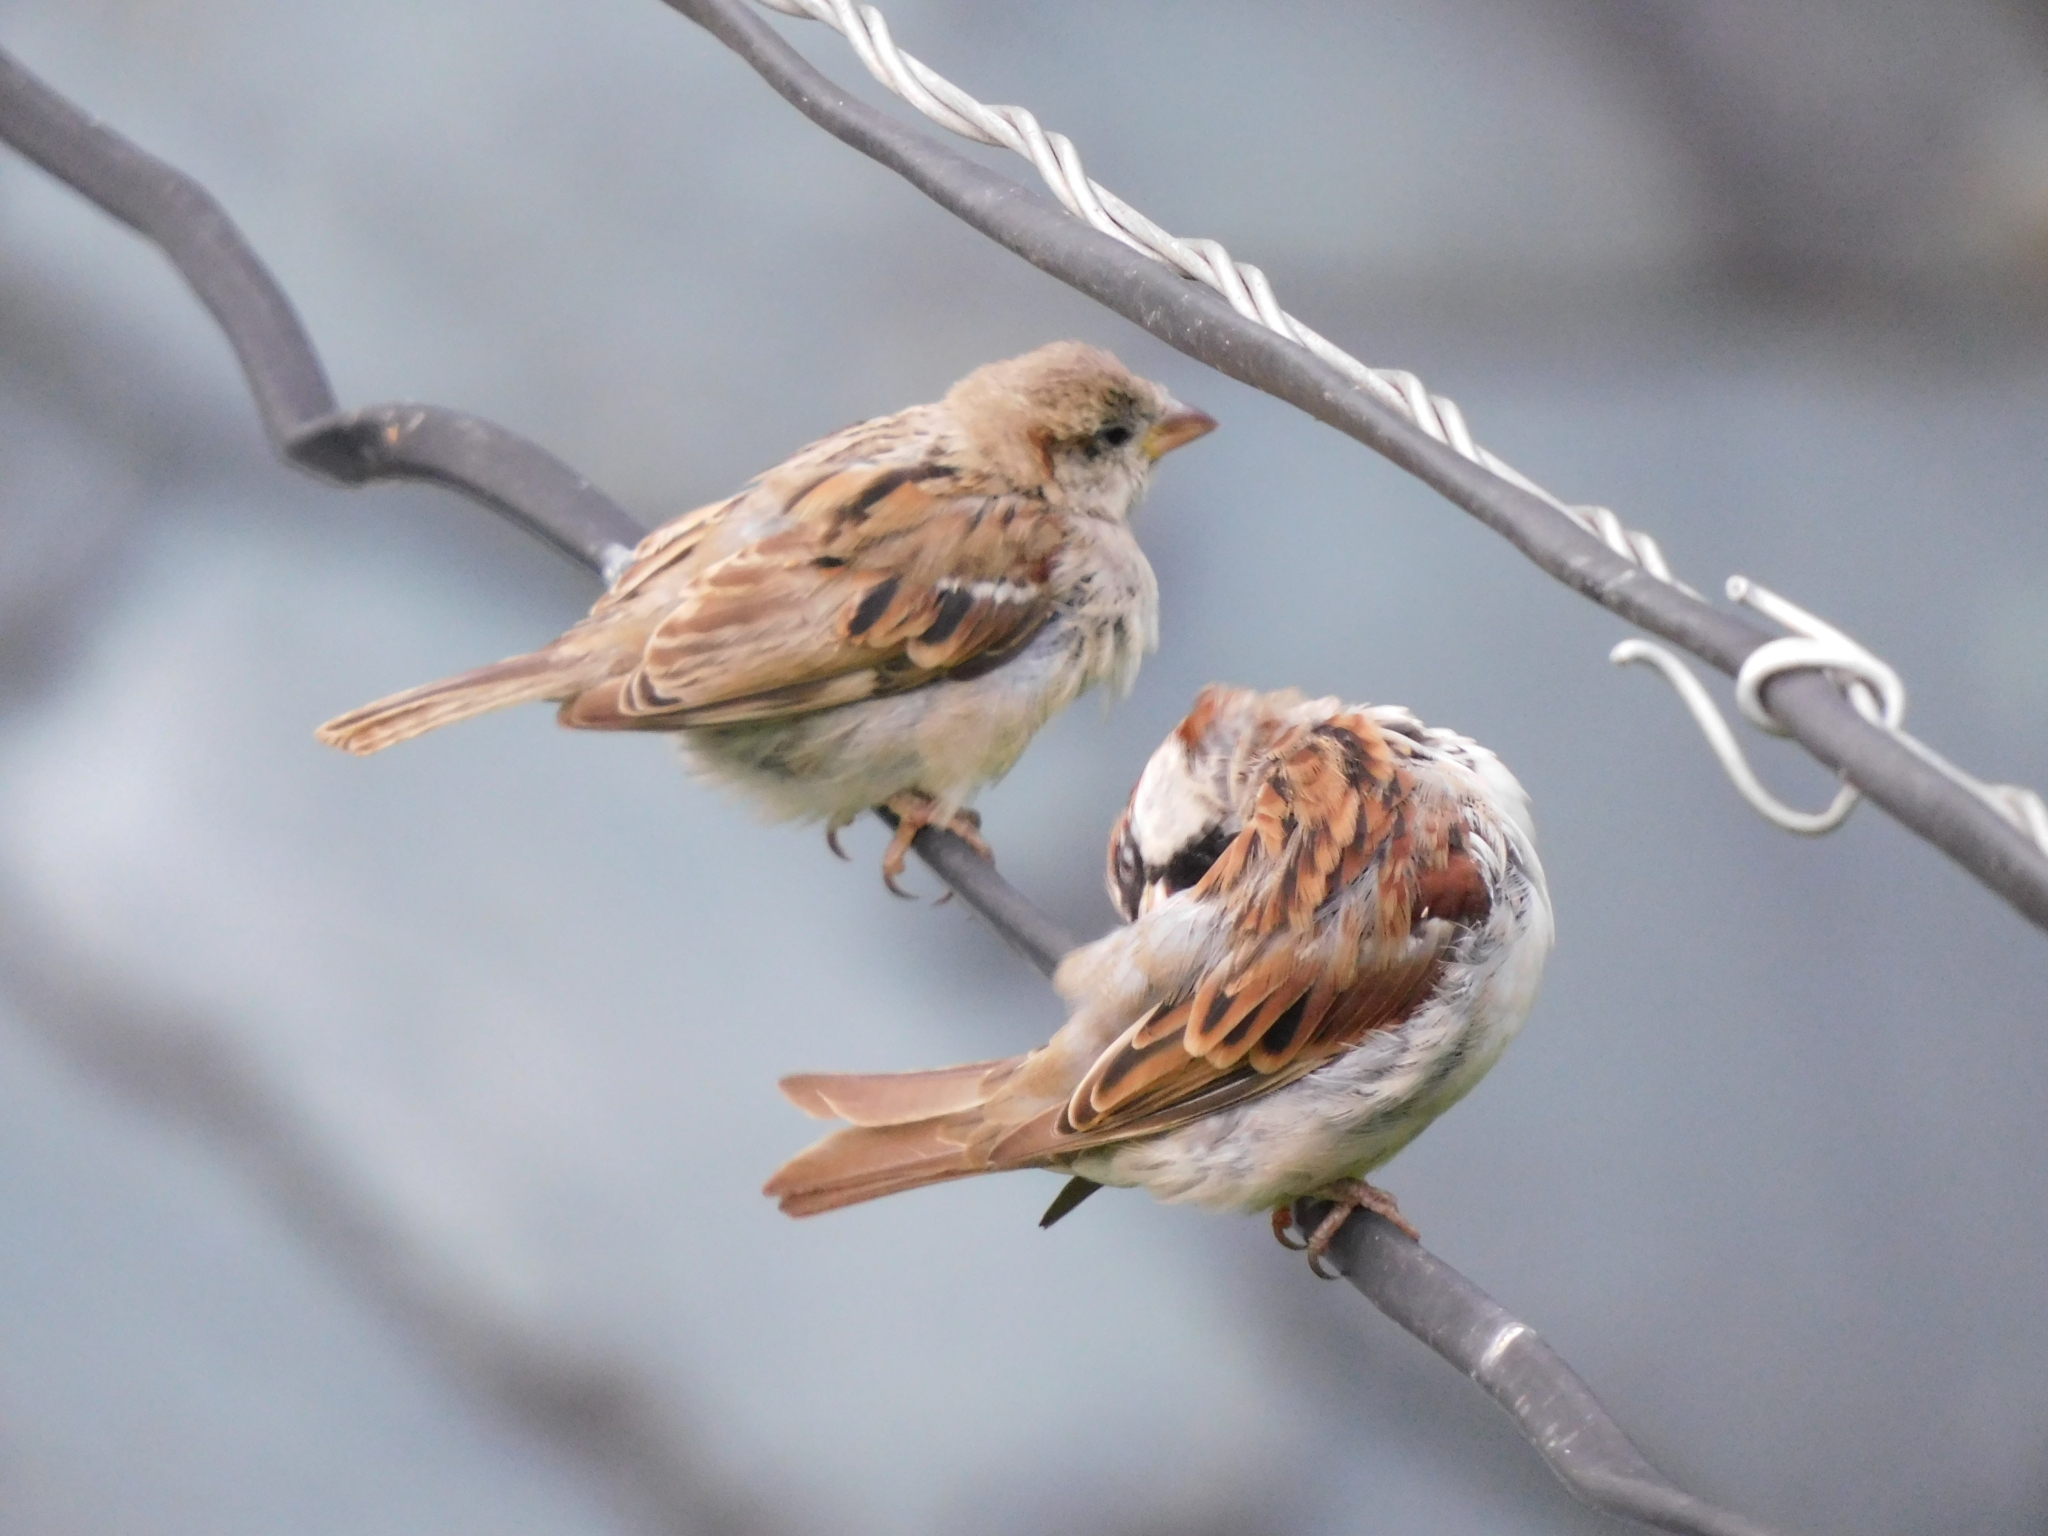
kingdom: Animalia
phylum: Chordata
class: Aves
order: Passeriformes
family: Passeridae
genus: Passer
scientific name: Passer domesticus
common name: House sparrow
